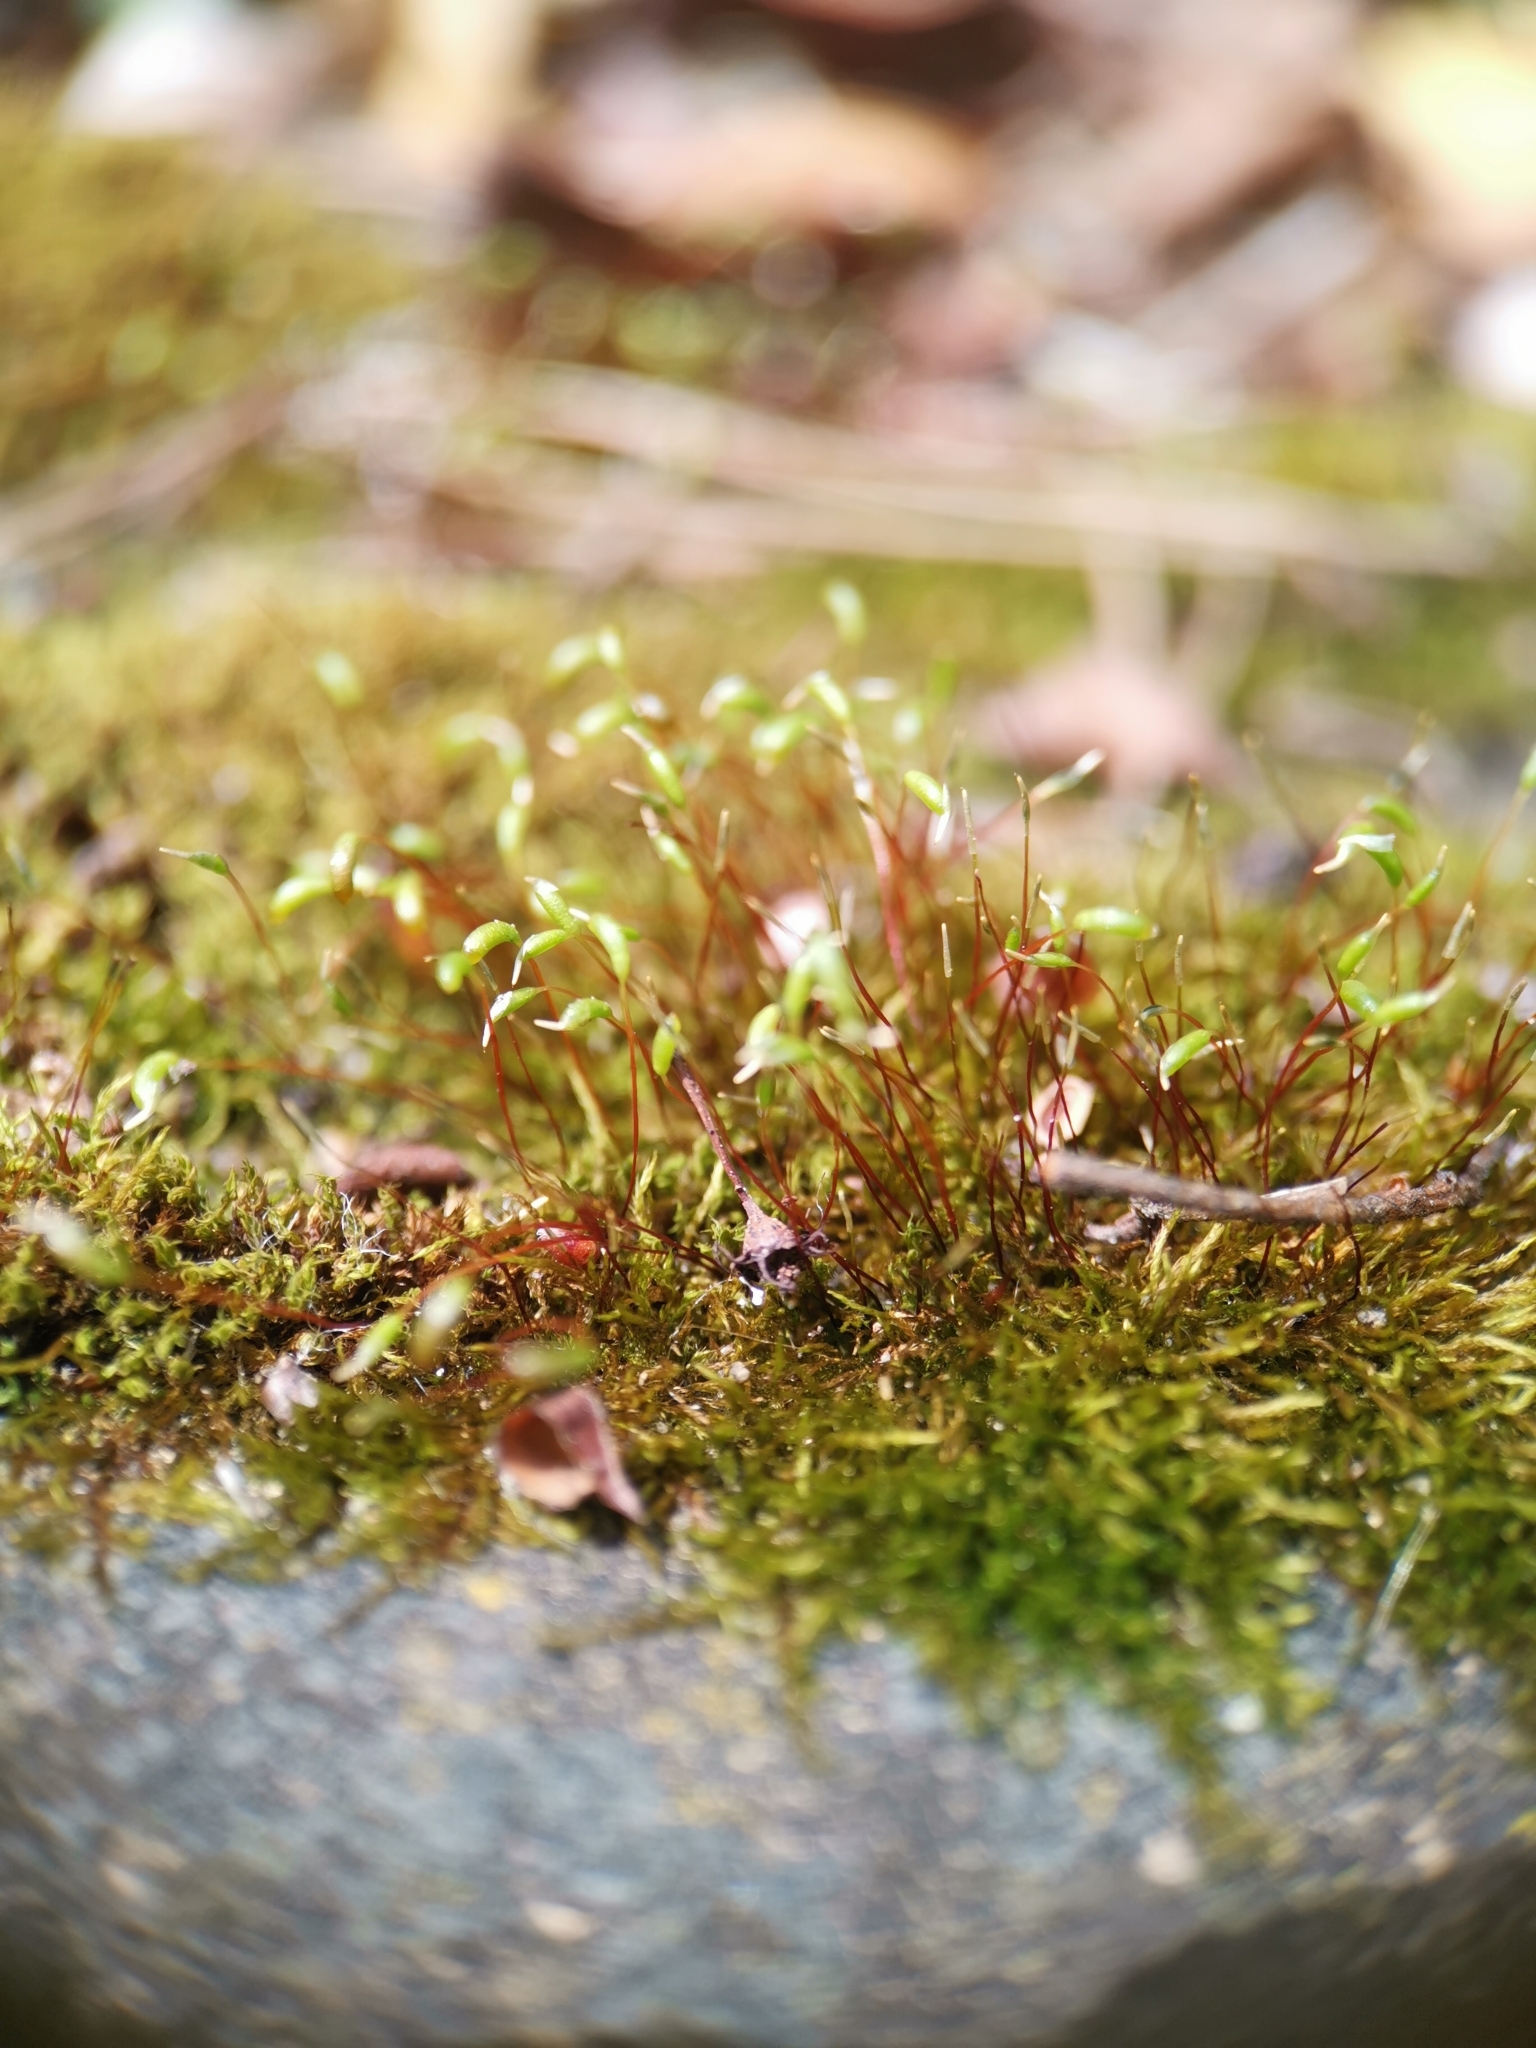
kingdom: Plantae
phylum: Bryophyta
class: Bryopsida
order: Hypnales
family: Amblystegiaceae
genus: Amblystegium
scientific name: Amblystegium serpens
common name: Jurkatzka's feather moss
